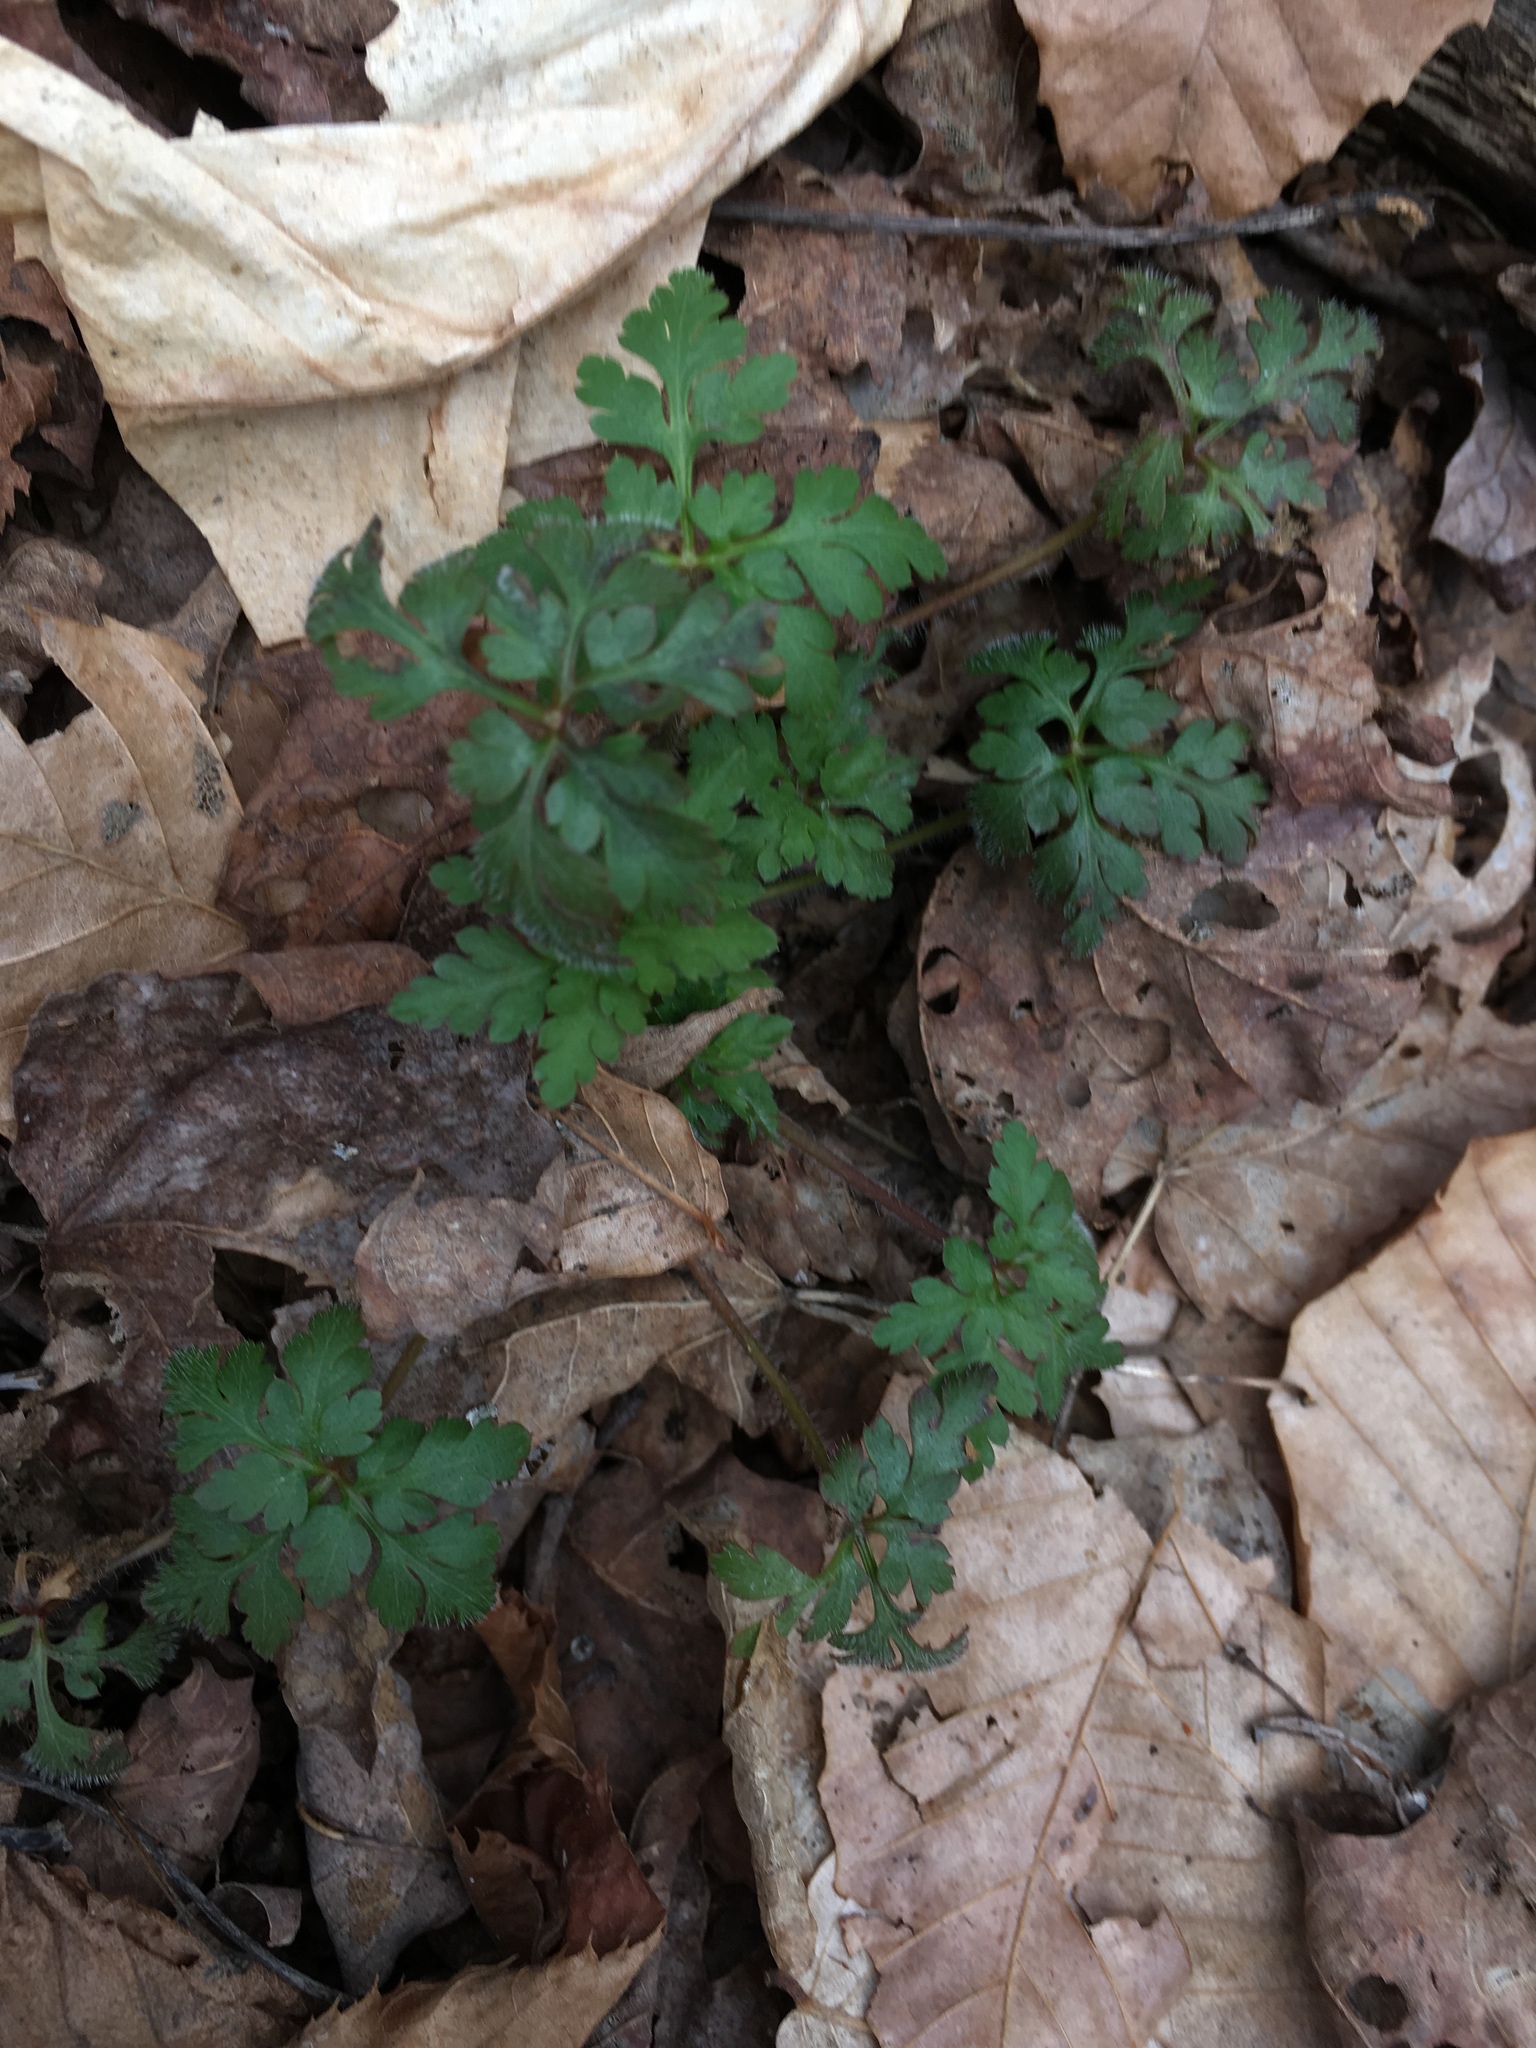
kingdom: Plantae
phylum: Tracheophyta
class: Magnoliopsida
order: Geraniales
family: Geraniaceae
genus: Geranium
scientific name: Geranium robertianum
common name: Herb-robert
